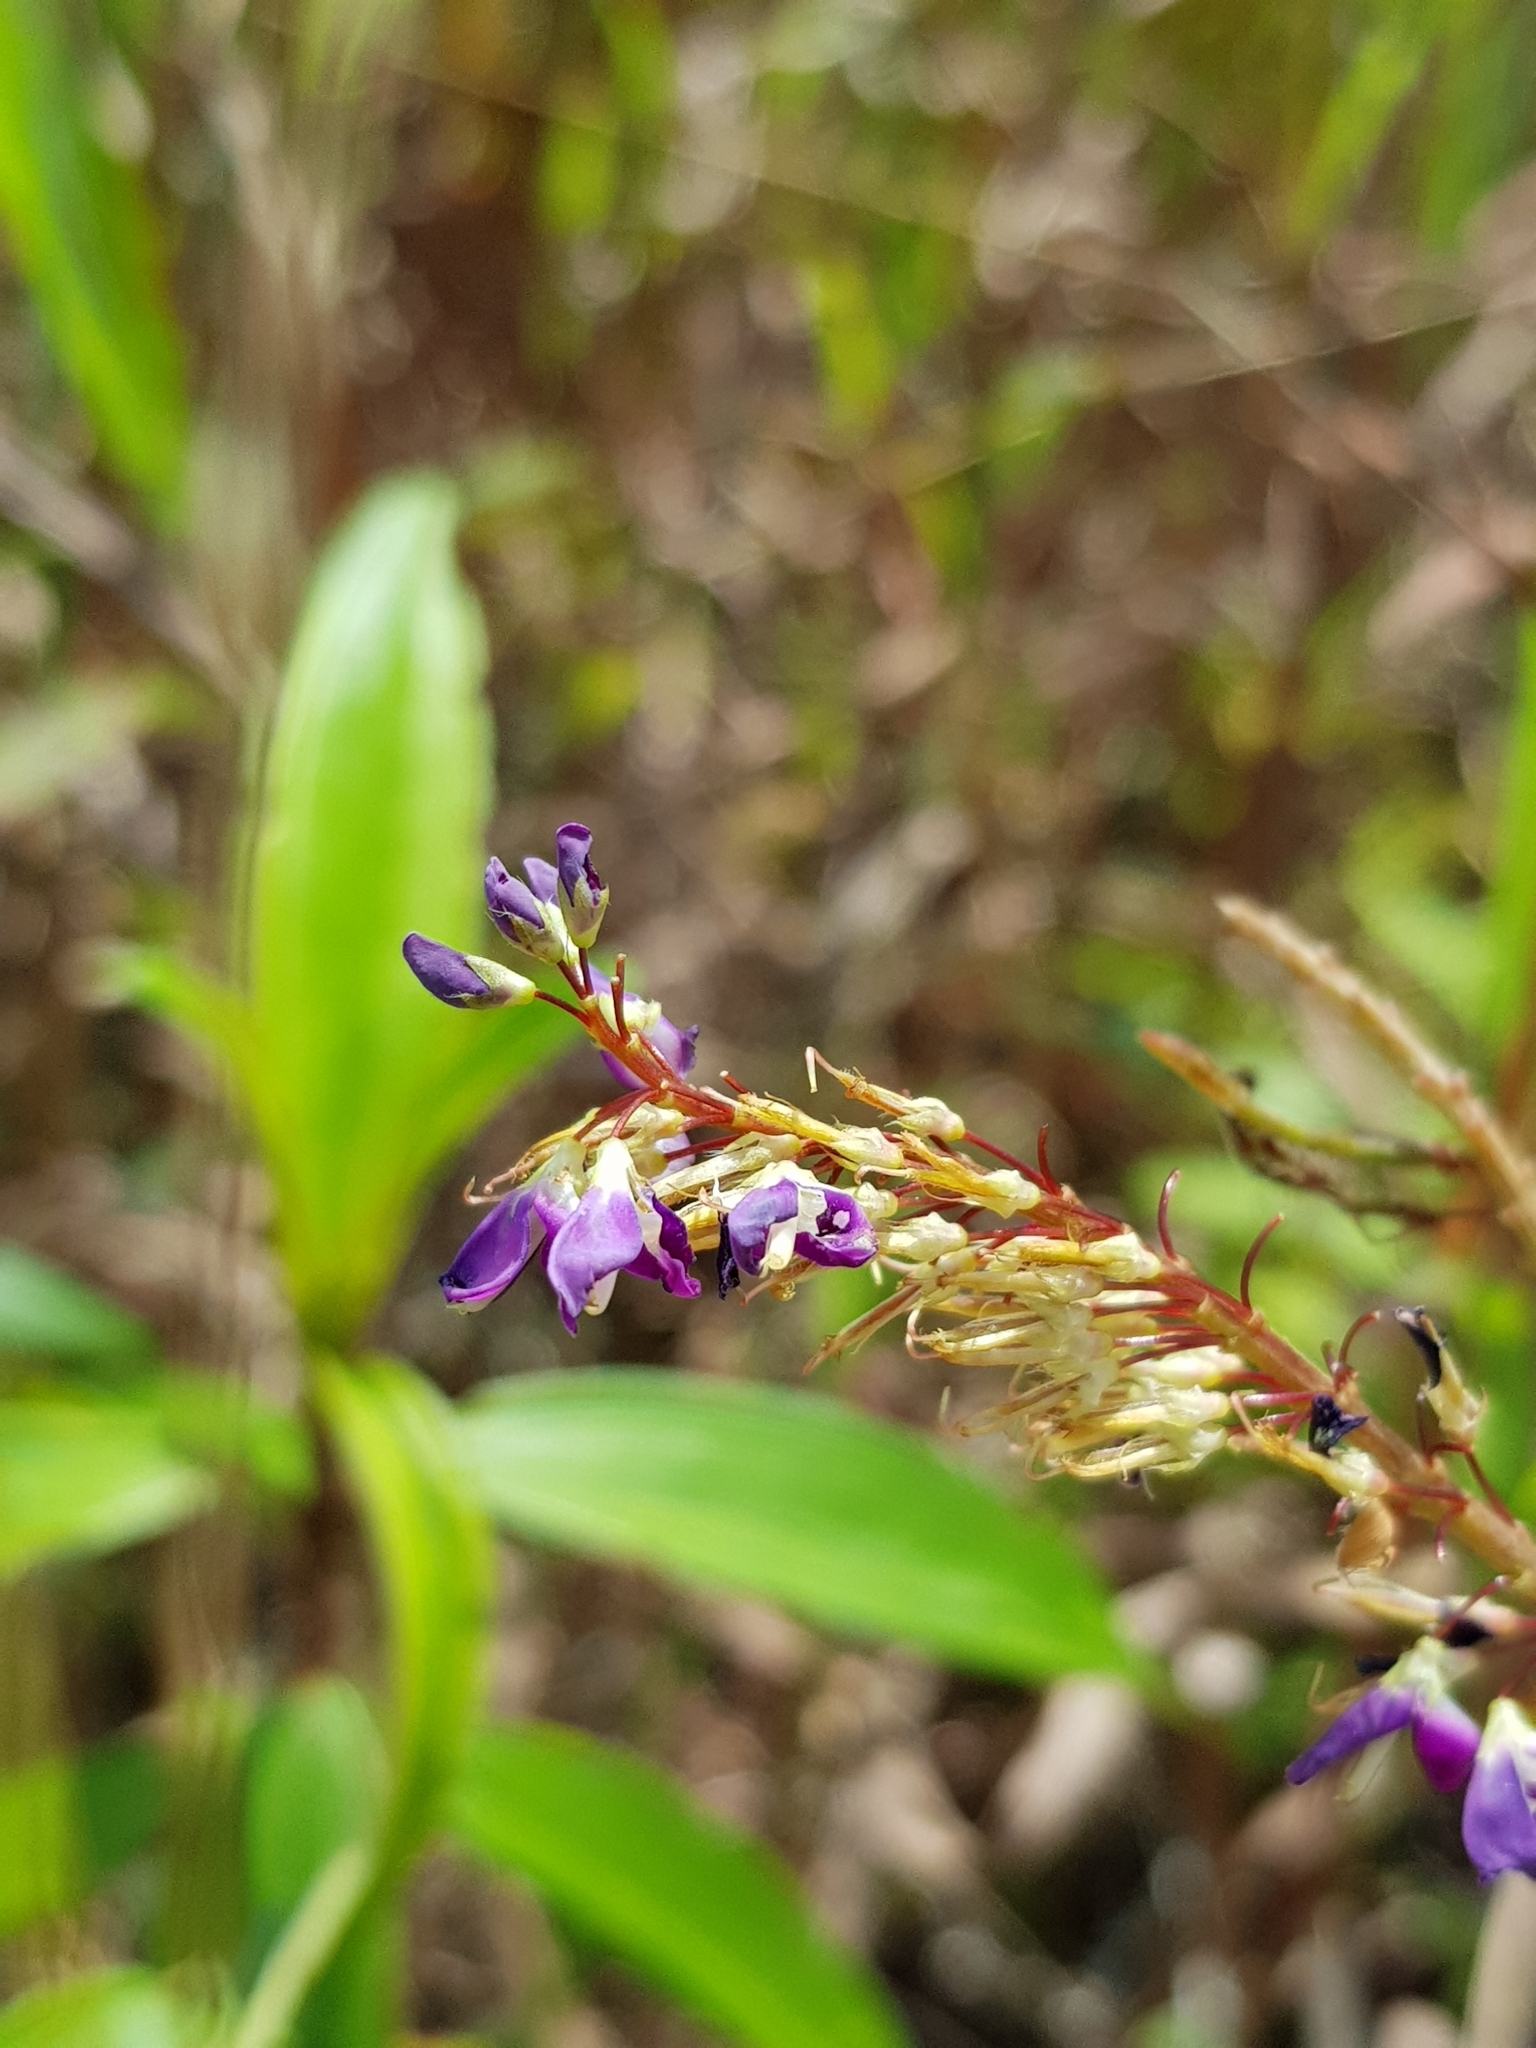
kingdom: Plantae
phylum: Tracheophyta
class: Magnoliopsida
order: Fabales
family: Fabaceae
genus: Grona
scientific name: Grona heterocarpos
